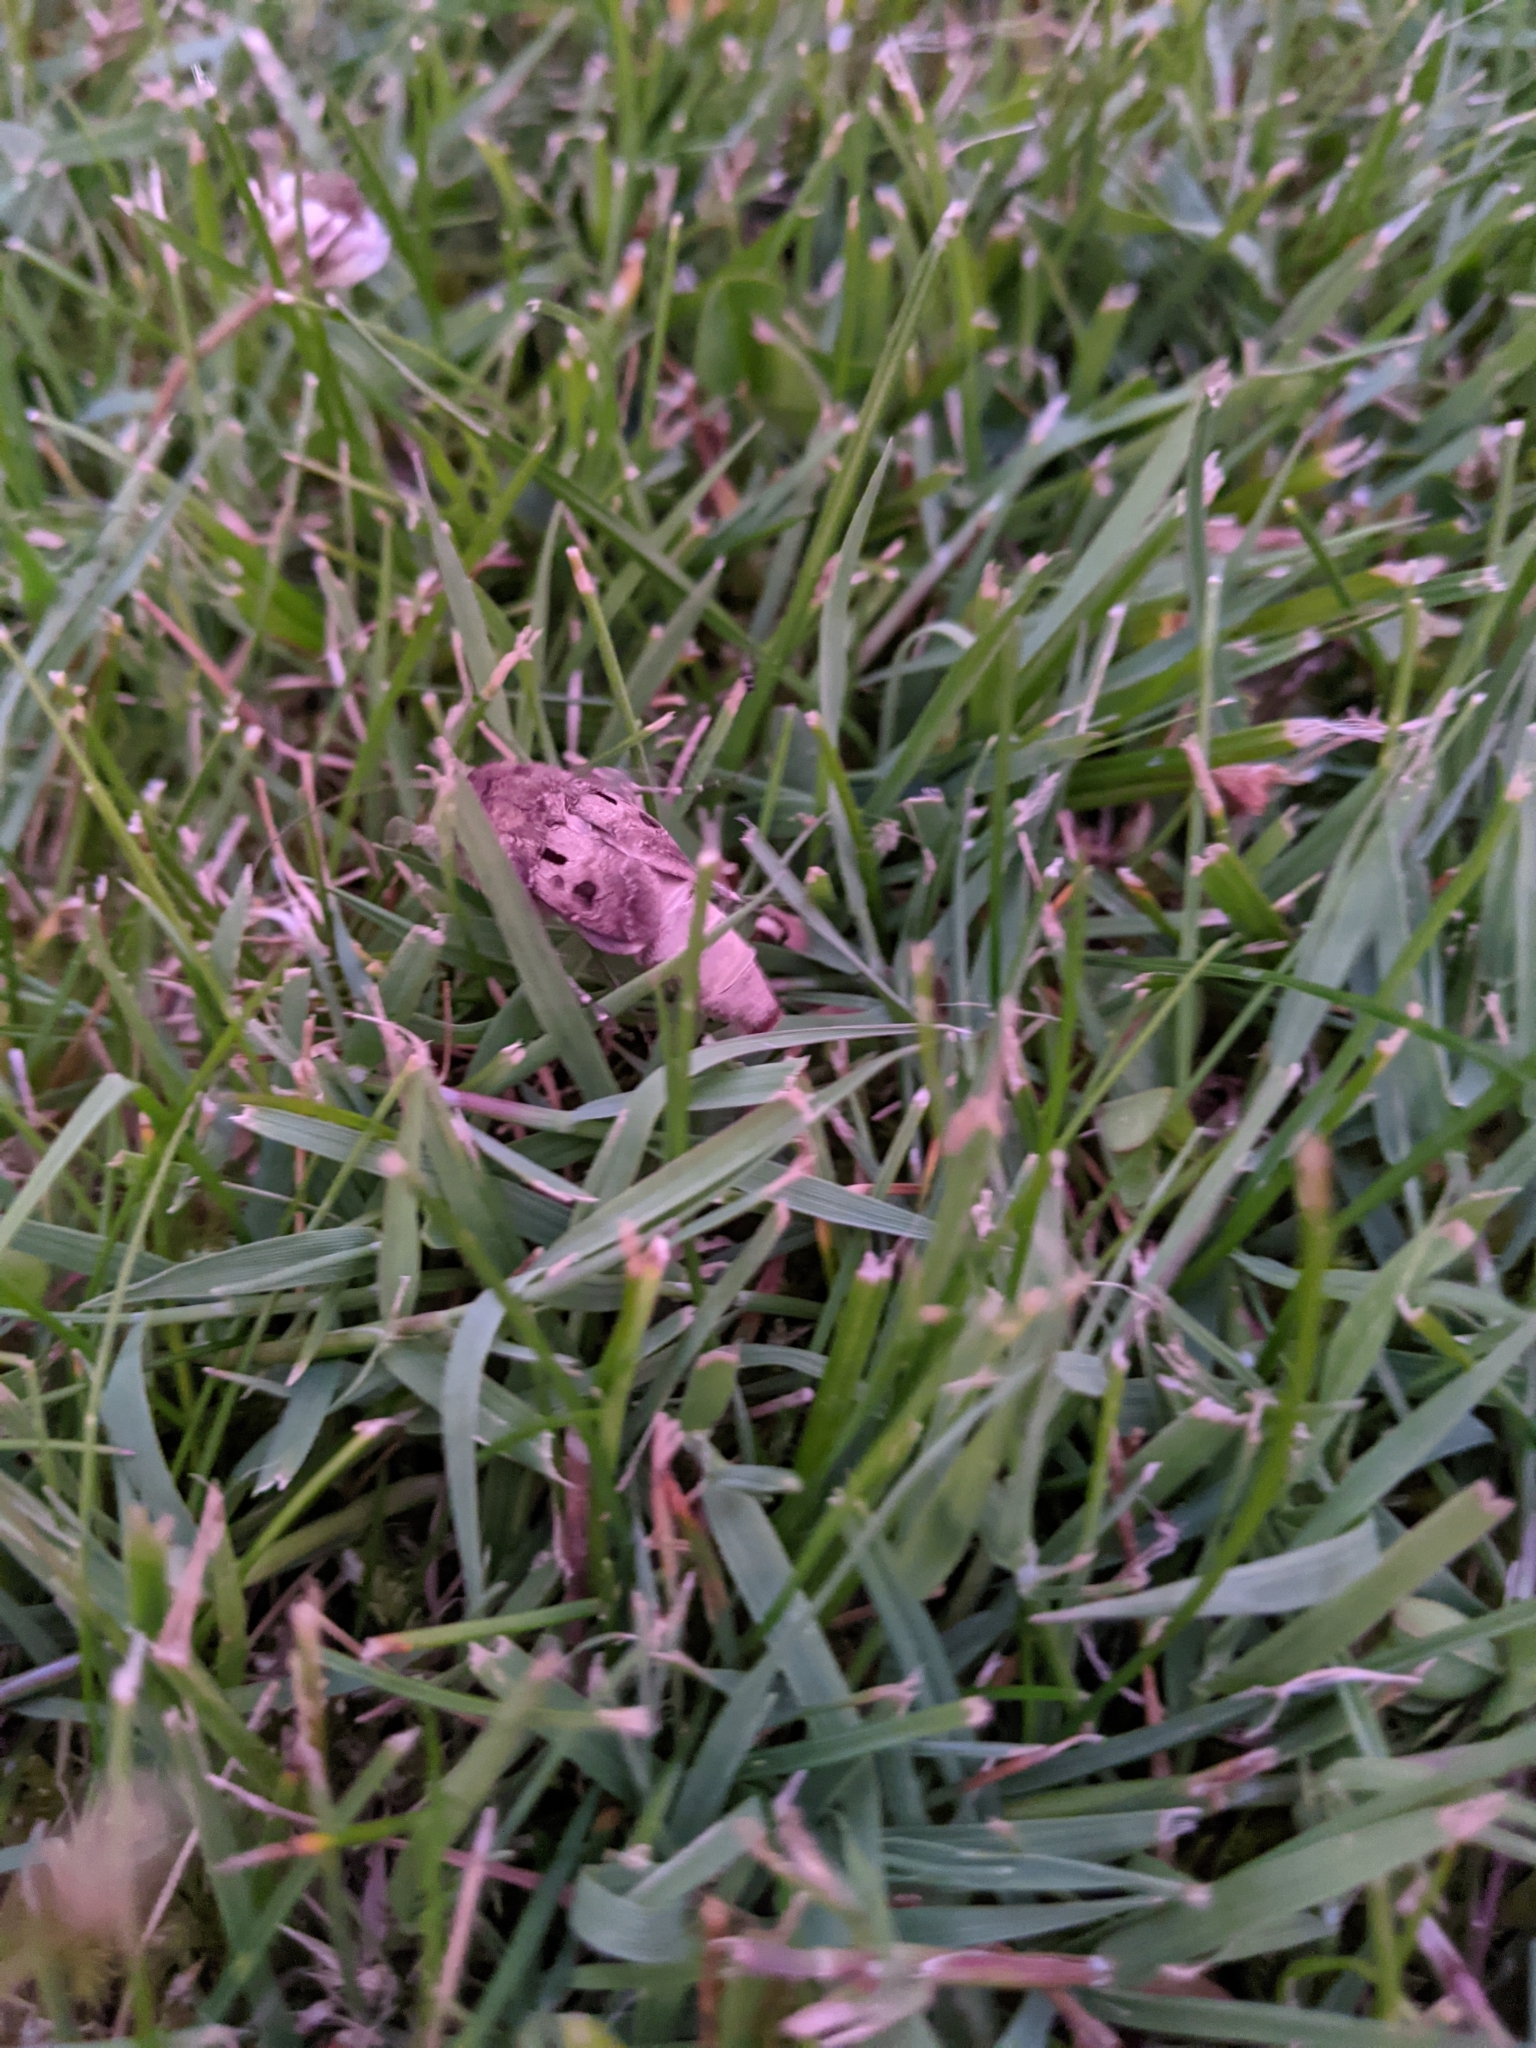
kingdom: Animalia
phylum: Arthropoda
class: Insecta
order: Lepidoptera
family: Noctuidae
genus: Agrotis
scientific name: Agrotis exclamationis
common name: Heart and dart
